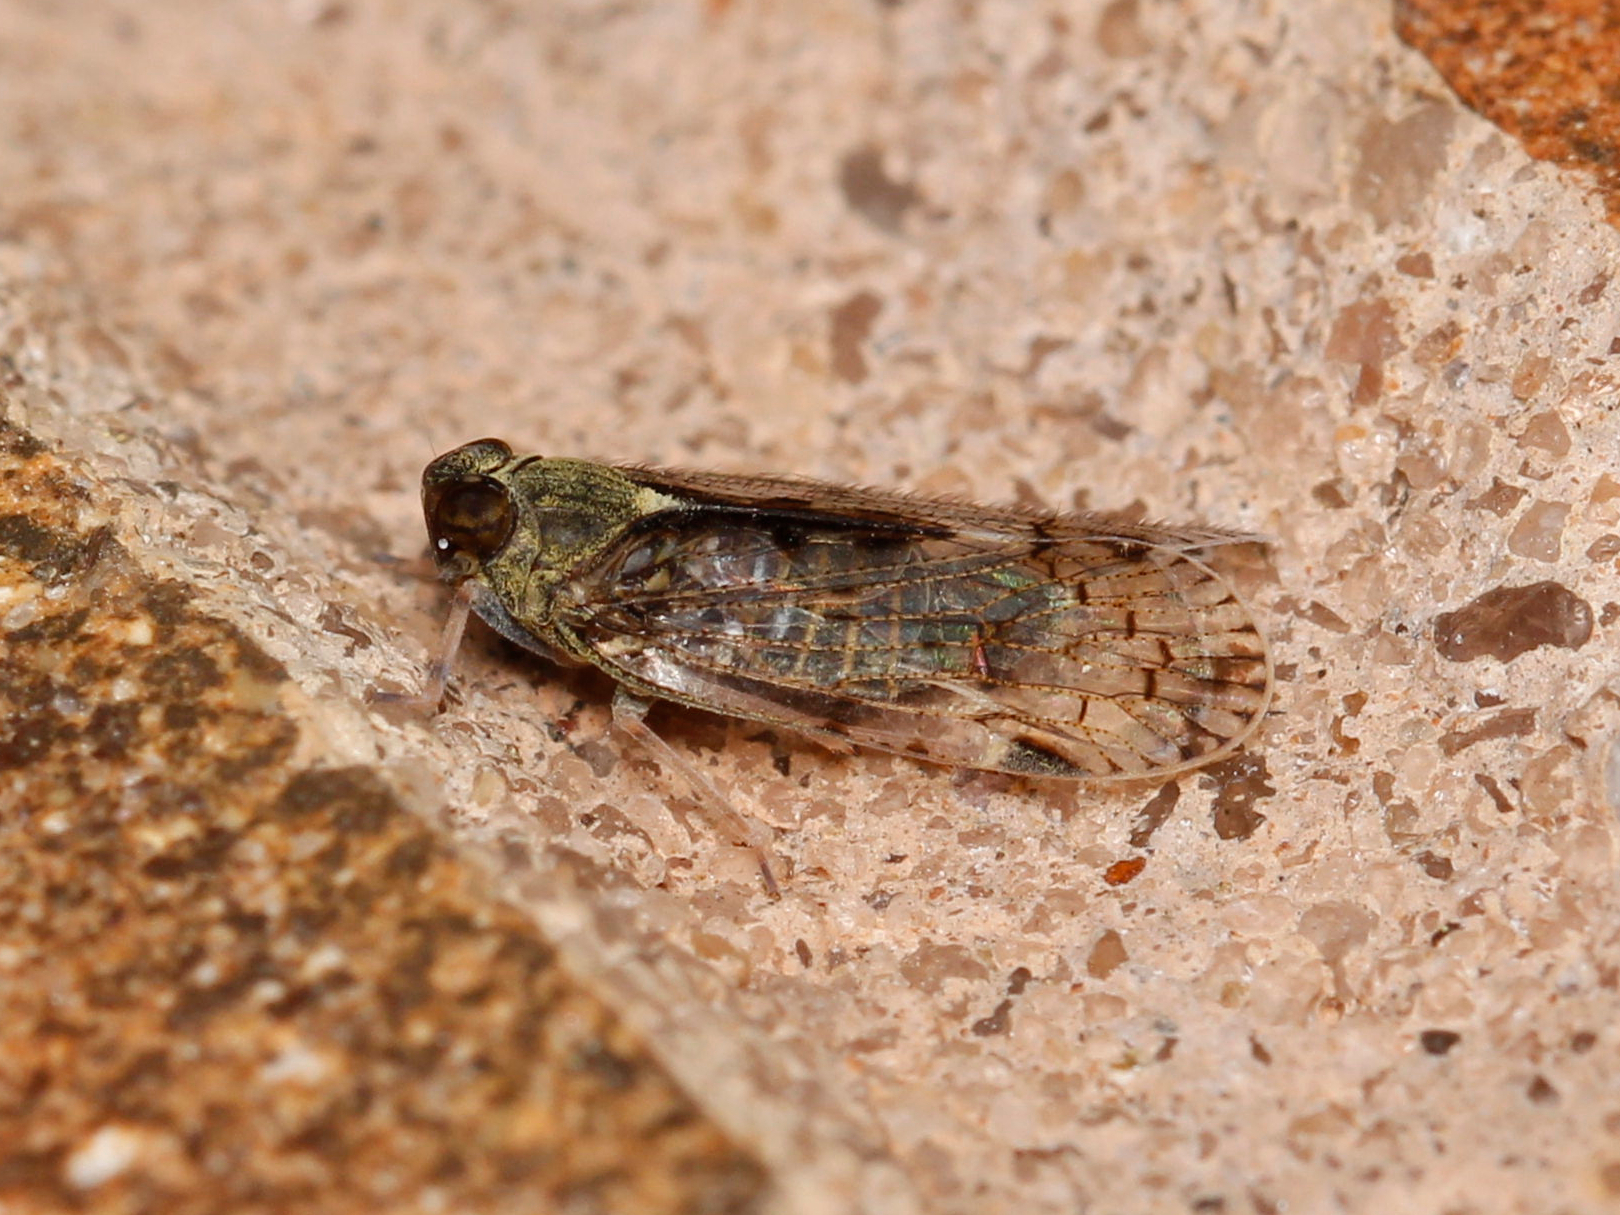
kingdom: Animalia
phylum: Arthropoda
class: Insecta
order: Hemiptera
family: Cixiidae
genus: Melanoliarus
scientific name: Melanoliarus placitus
